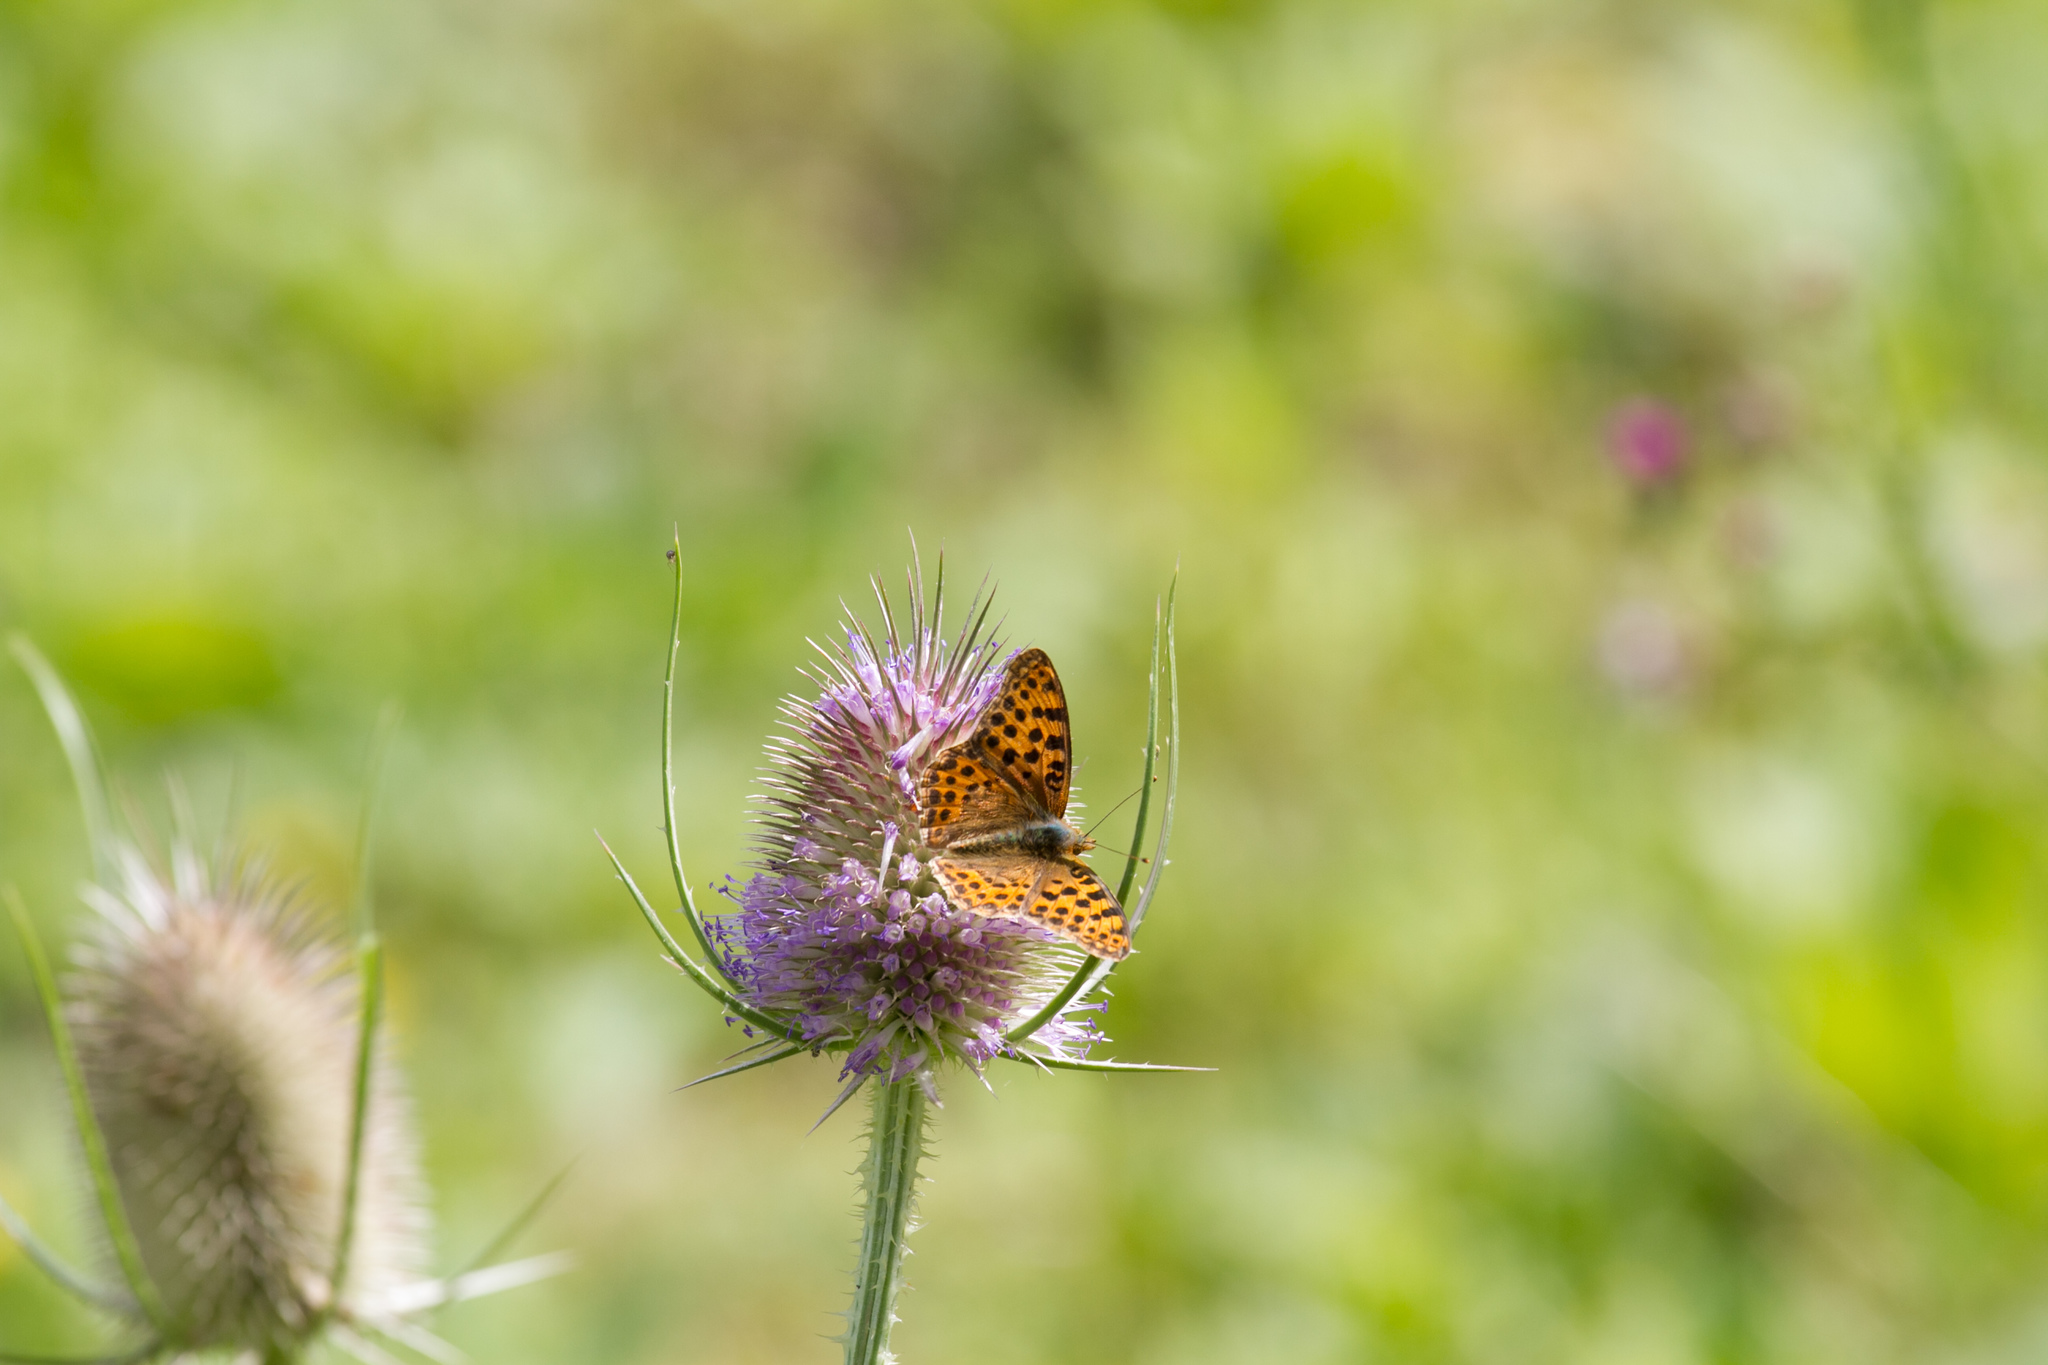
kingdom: Animalia
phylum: Arthropoda
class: Insecta
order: Lepidoptera
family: Nymphalidae
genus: Issoria
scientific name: Issoria lathonia
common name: Queen of spain fritillary
